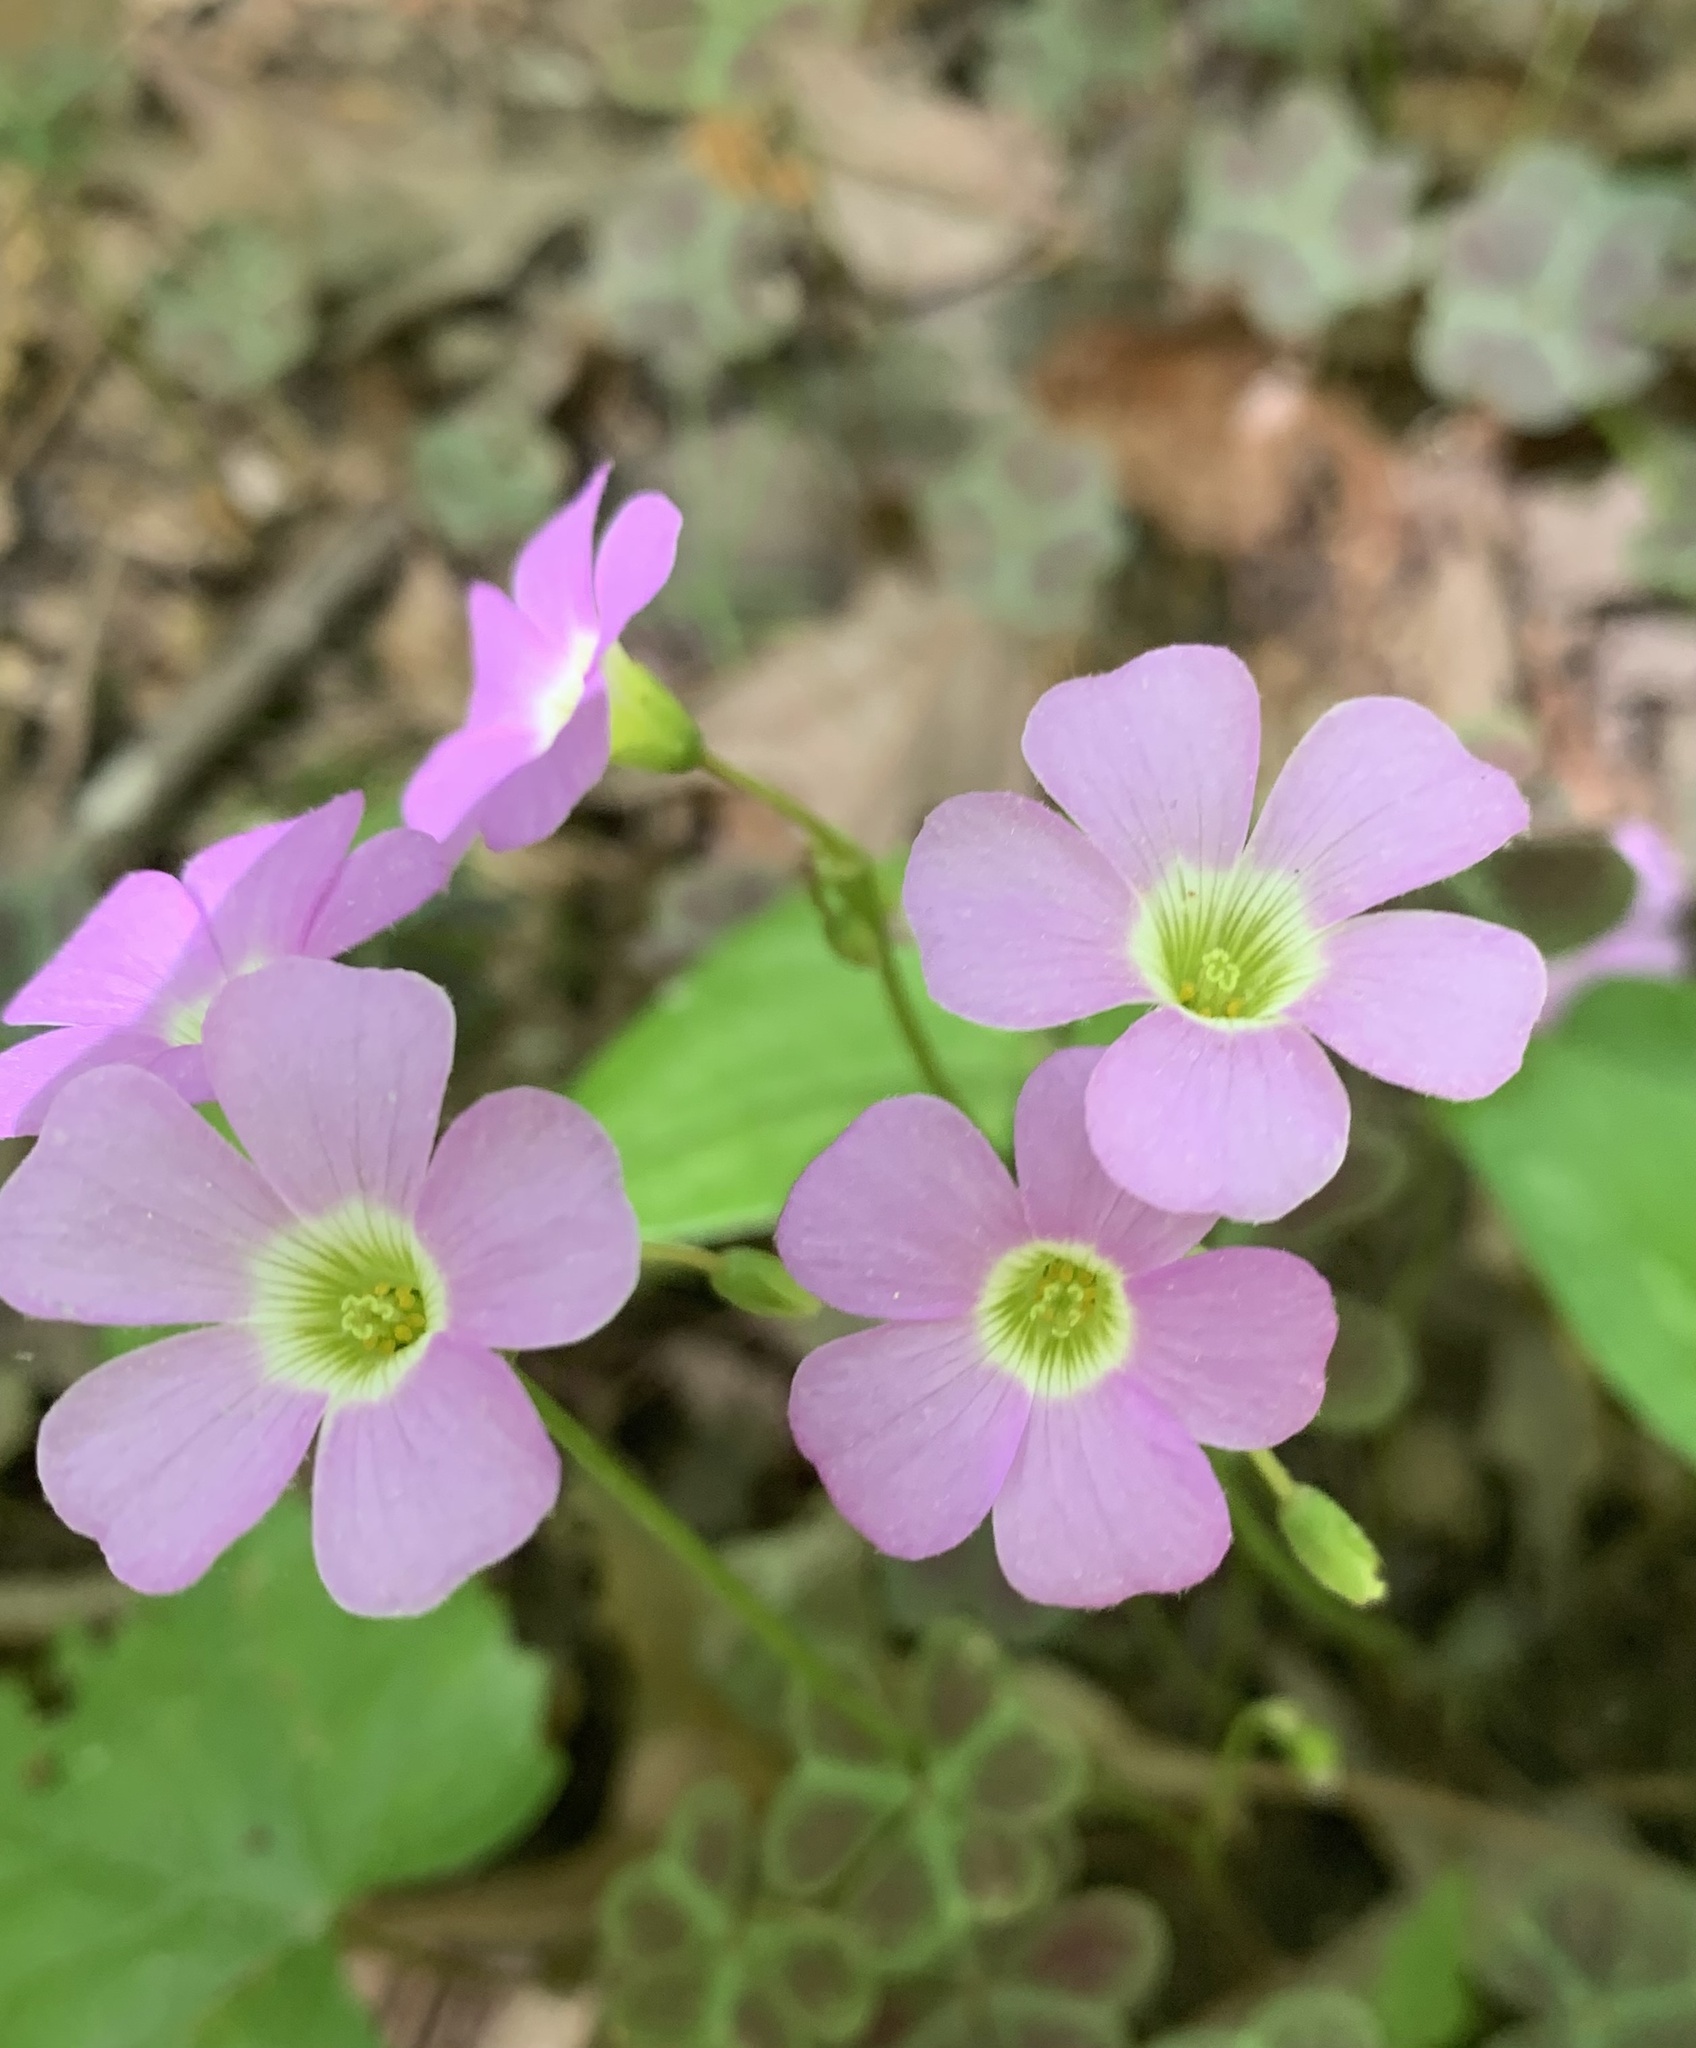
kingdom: Plantae
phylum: Tracheophyta
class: Magnoliopsida
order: Oxalidales
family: Oxalidaceae
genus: Oxalis
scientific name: Oxalis violacea
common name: Violet wood-sorrel
